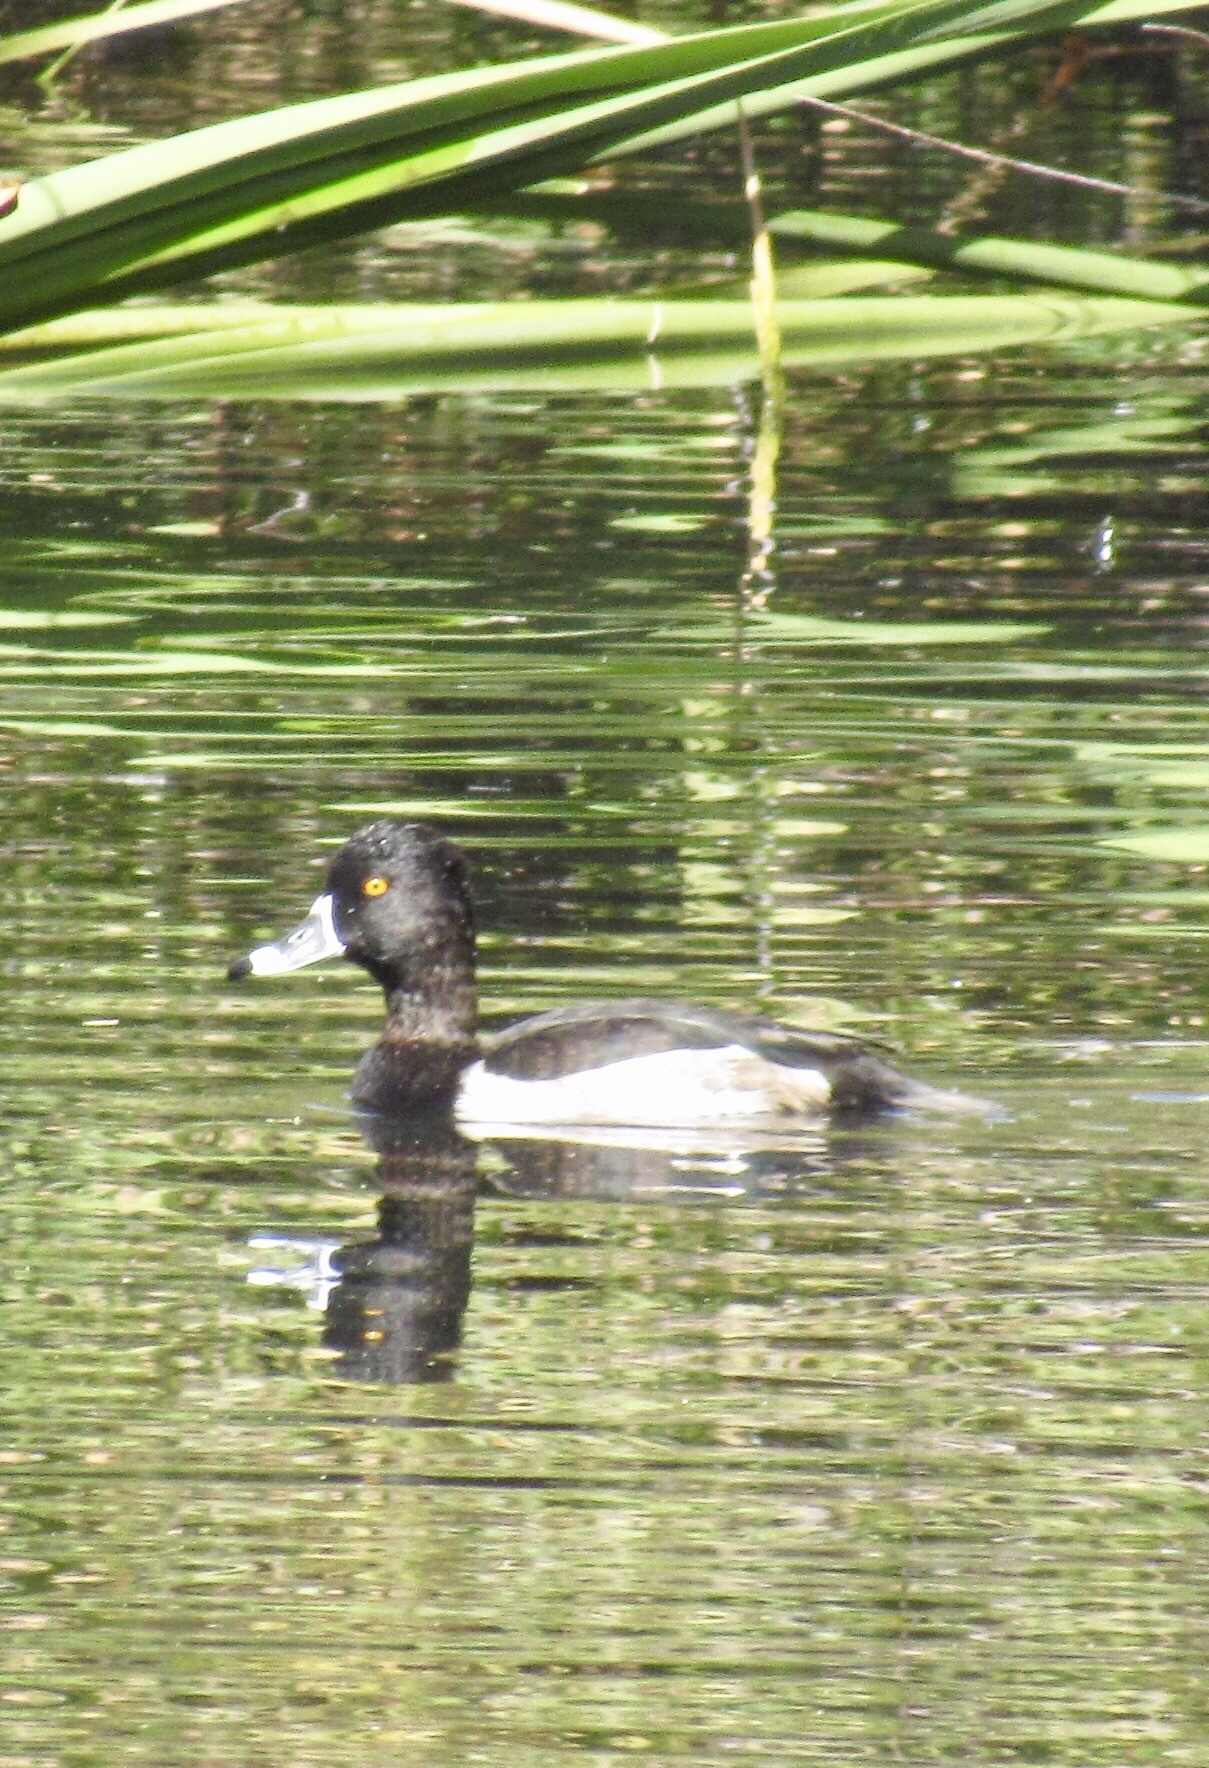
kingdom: Animalia
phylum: Chordata
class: Aves
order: Anseriformes
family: Anatidae
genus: Aythya
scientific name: Aythya collaris
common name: Ring-necked duck
